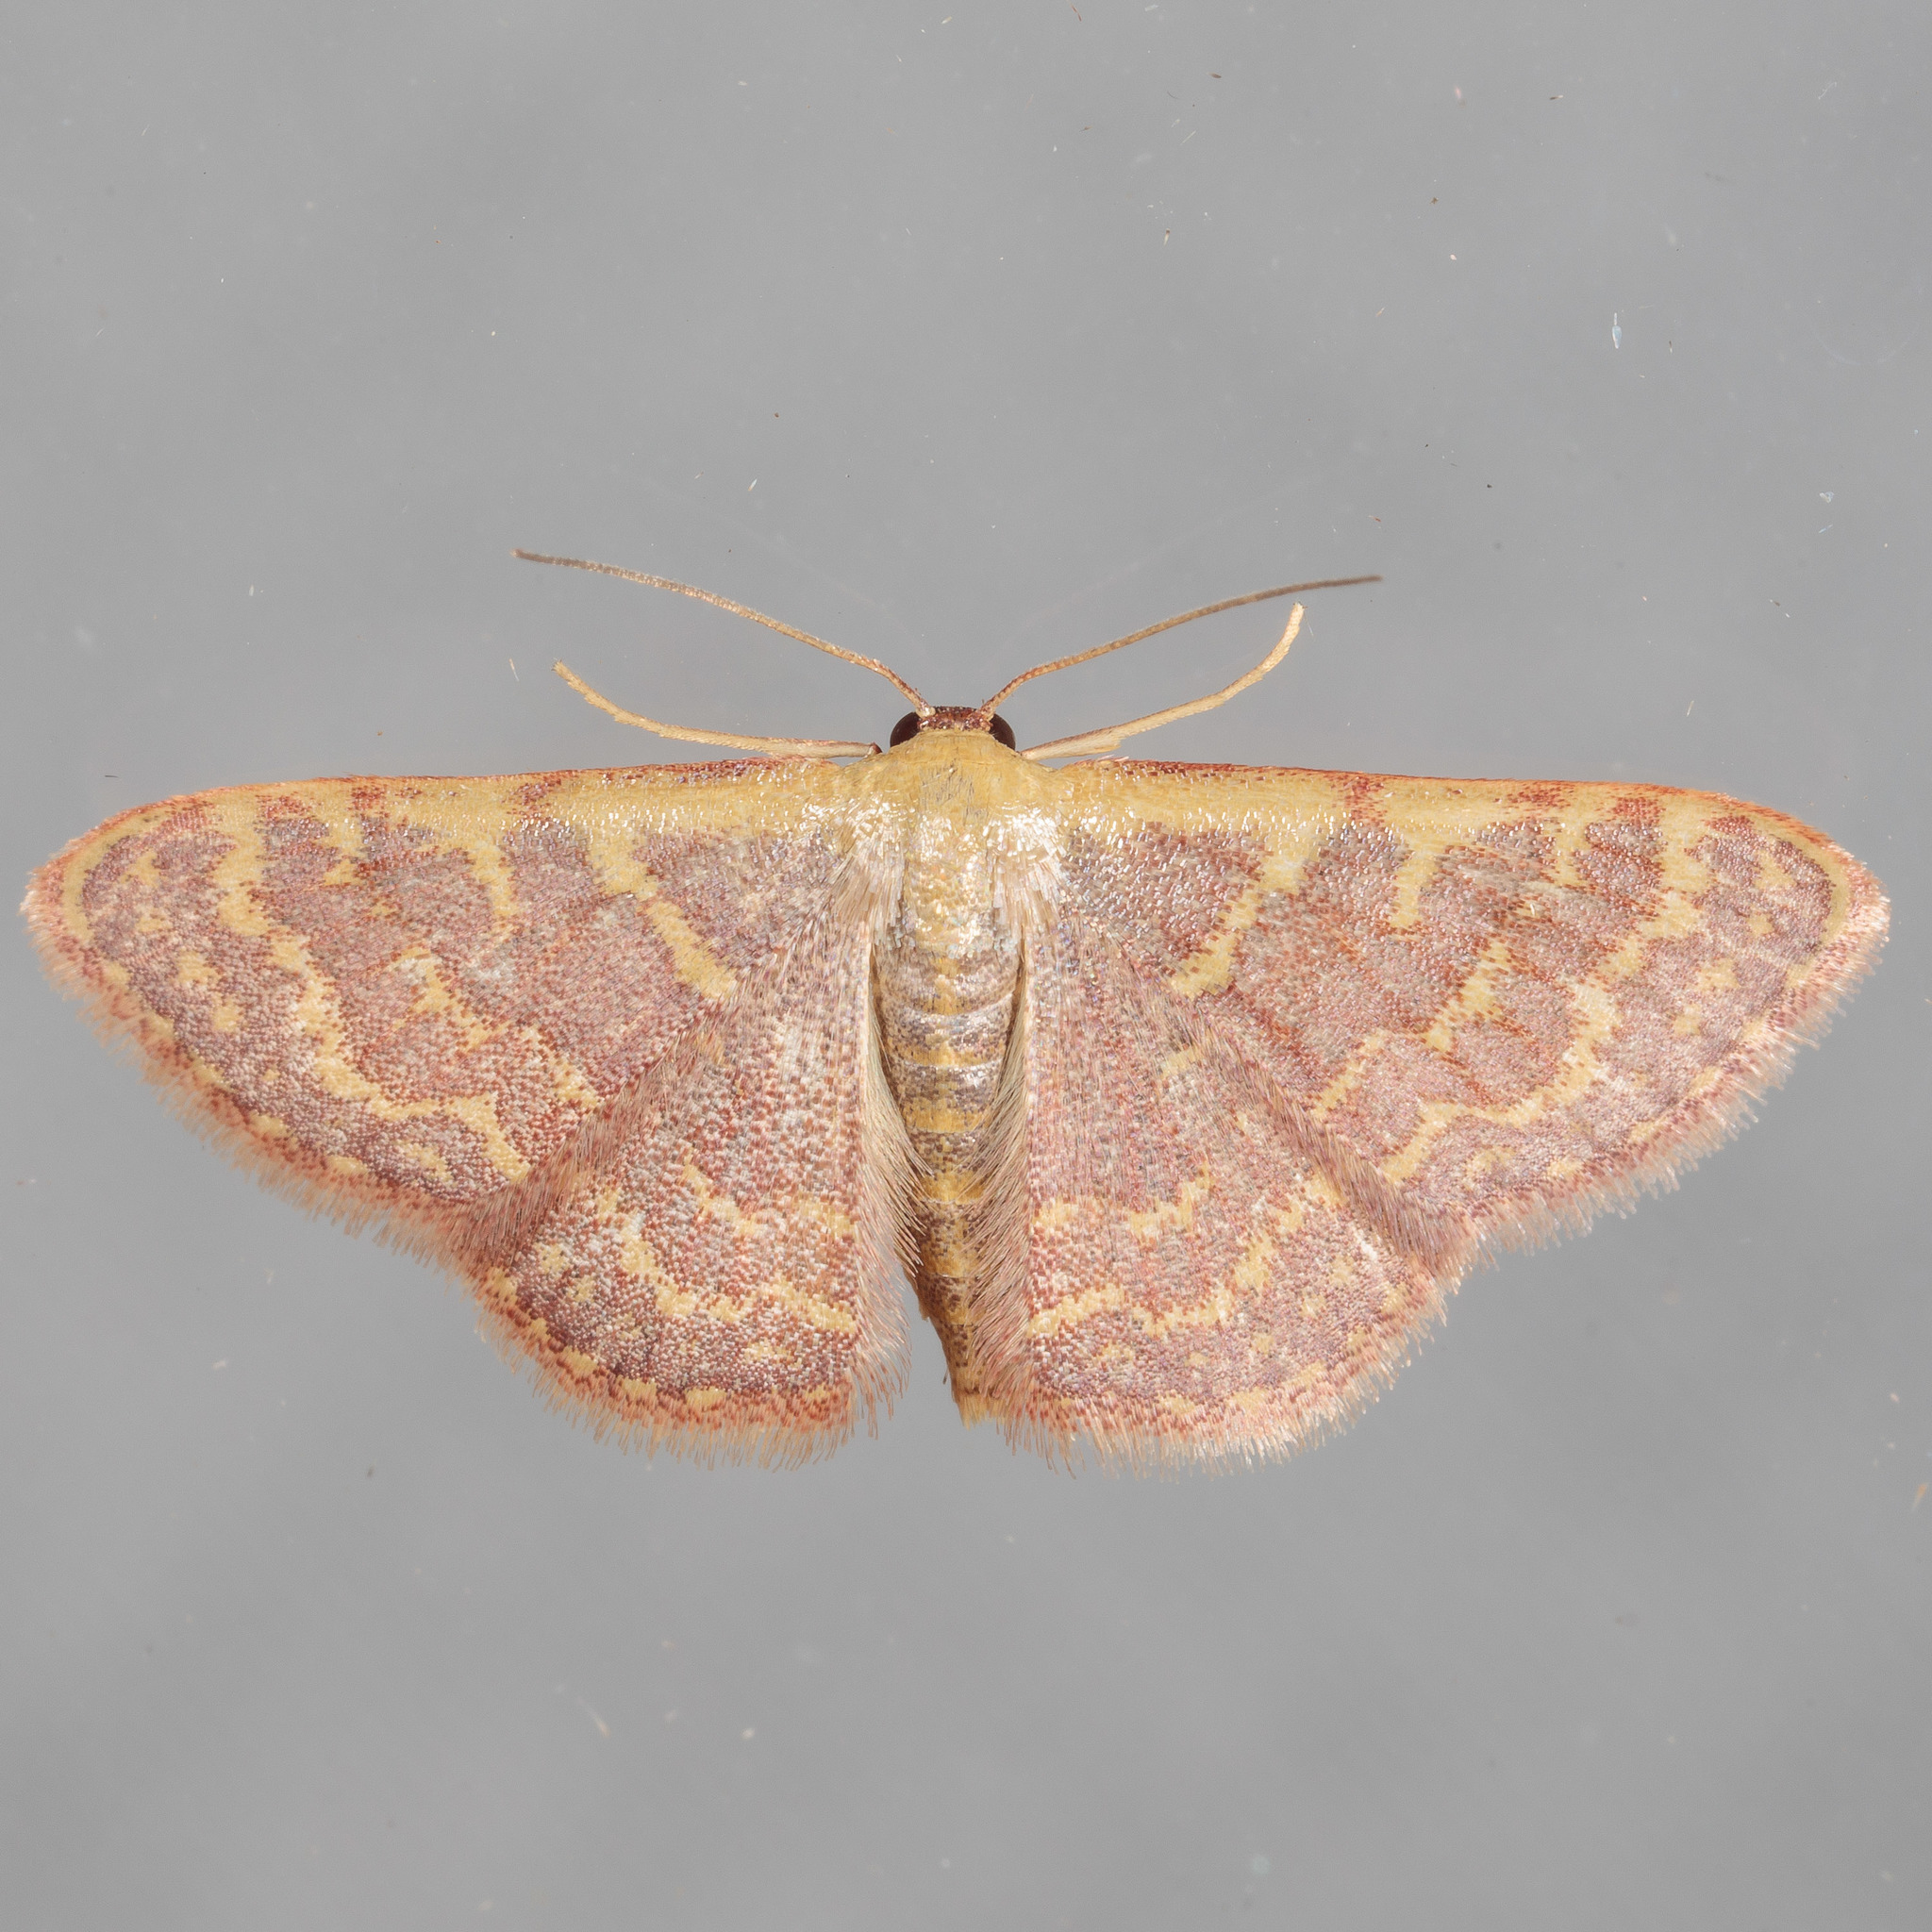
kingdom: Animalia
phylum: Arthropoda
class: Insecta
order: Lepidoptera
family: Geometridae
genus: Leptostales
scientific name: Leptostales pannaria
